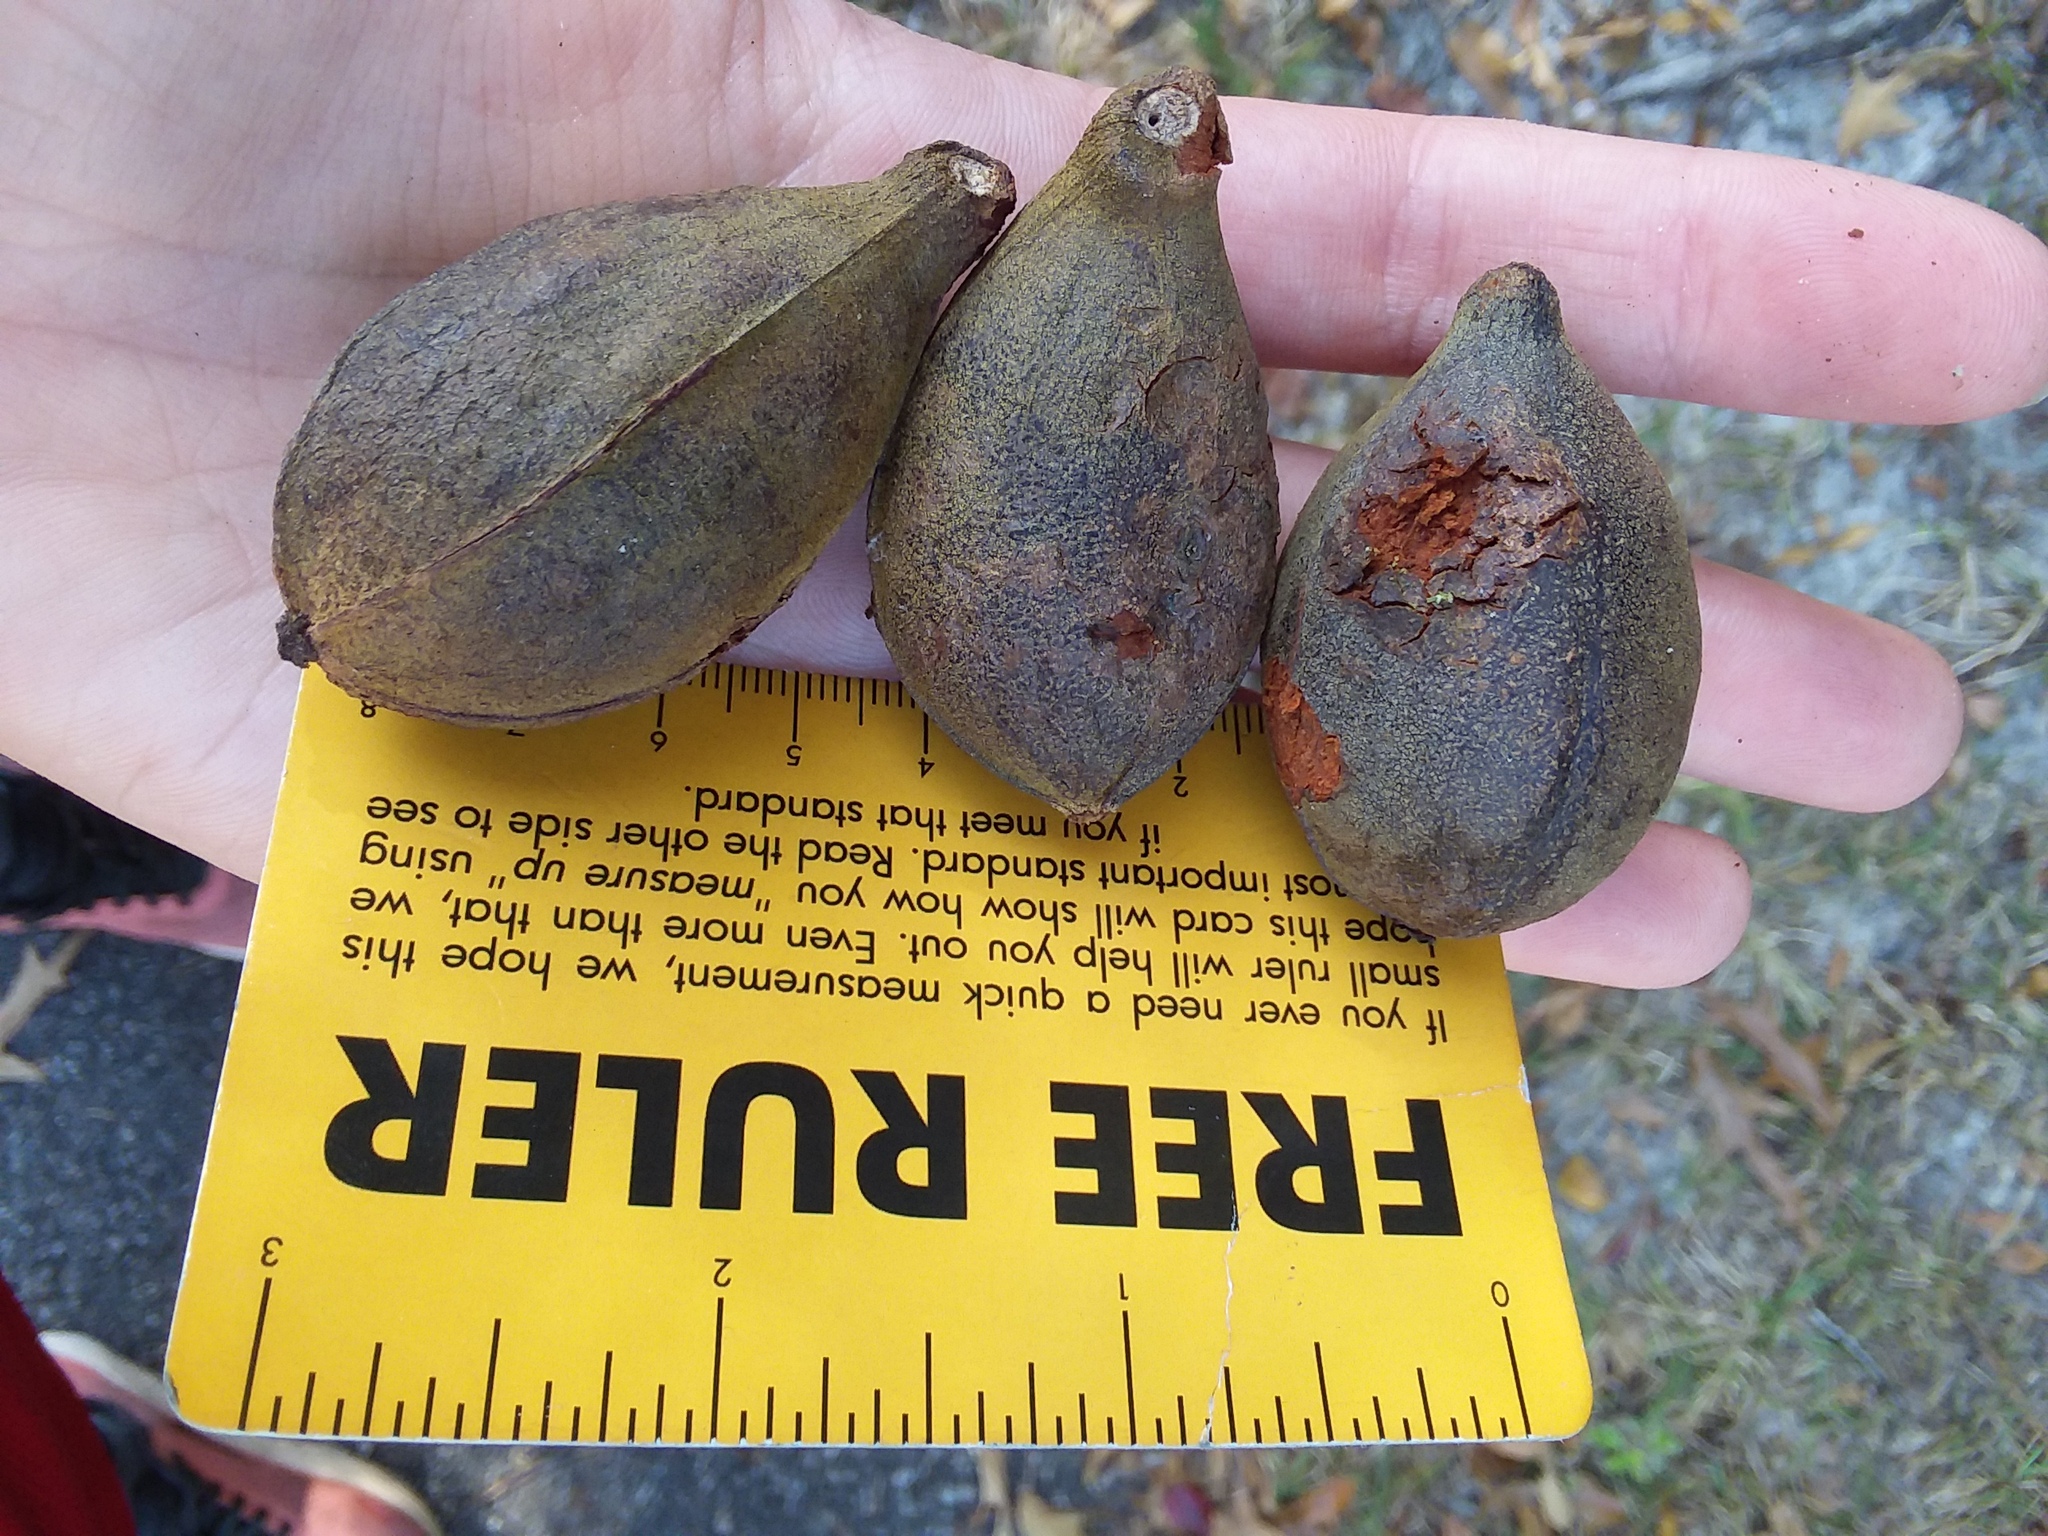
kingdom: Plantae
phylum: Tracheophyta
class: Magnoliopsida
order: Fagales
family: Juglandaceae
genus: Carya
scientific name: Carya glabra
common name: Pignut hickory
